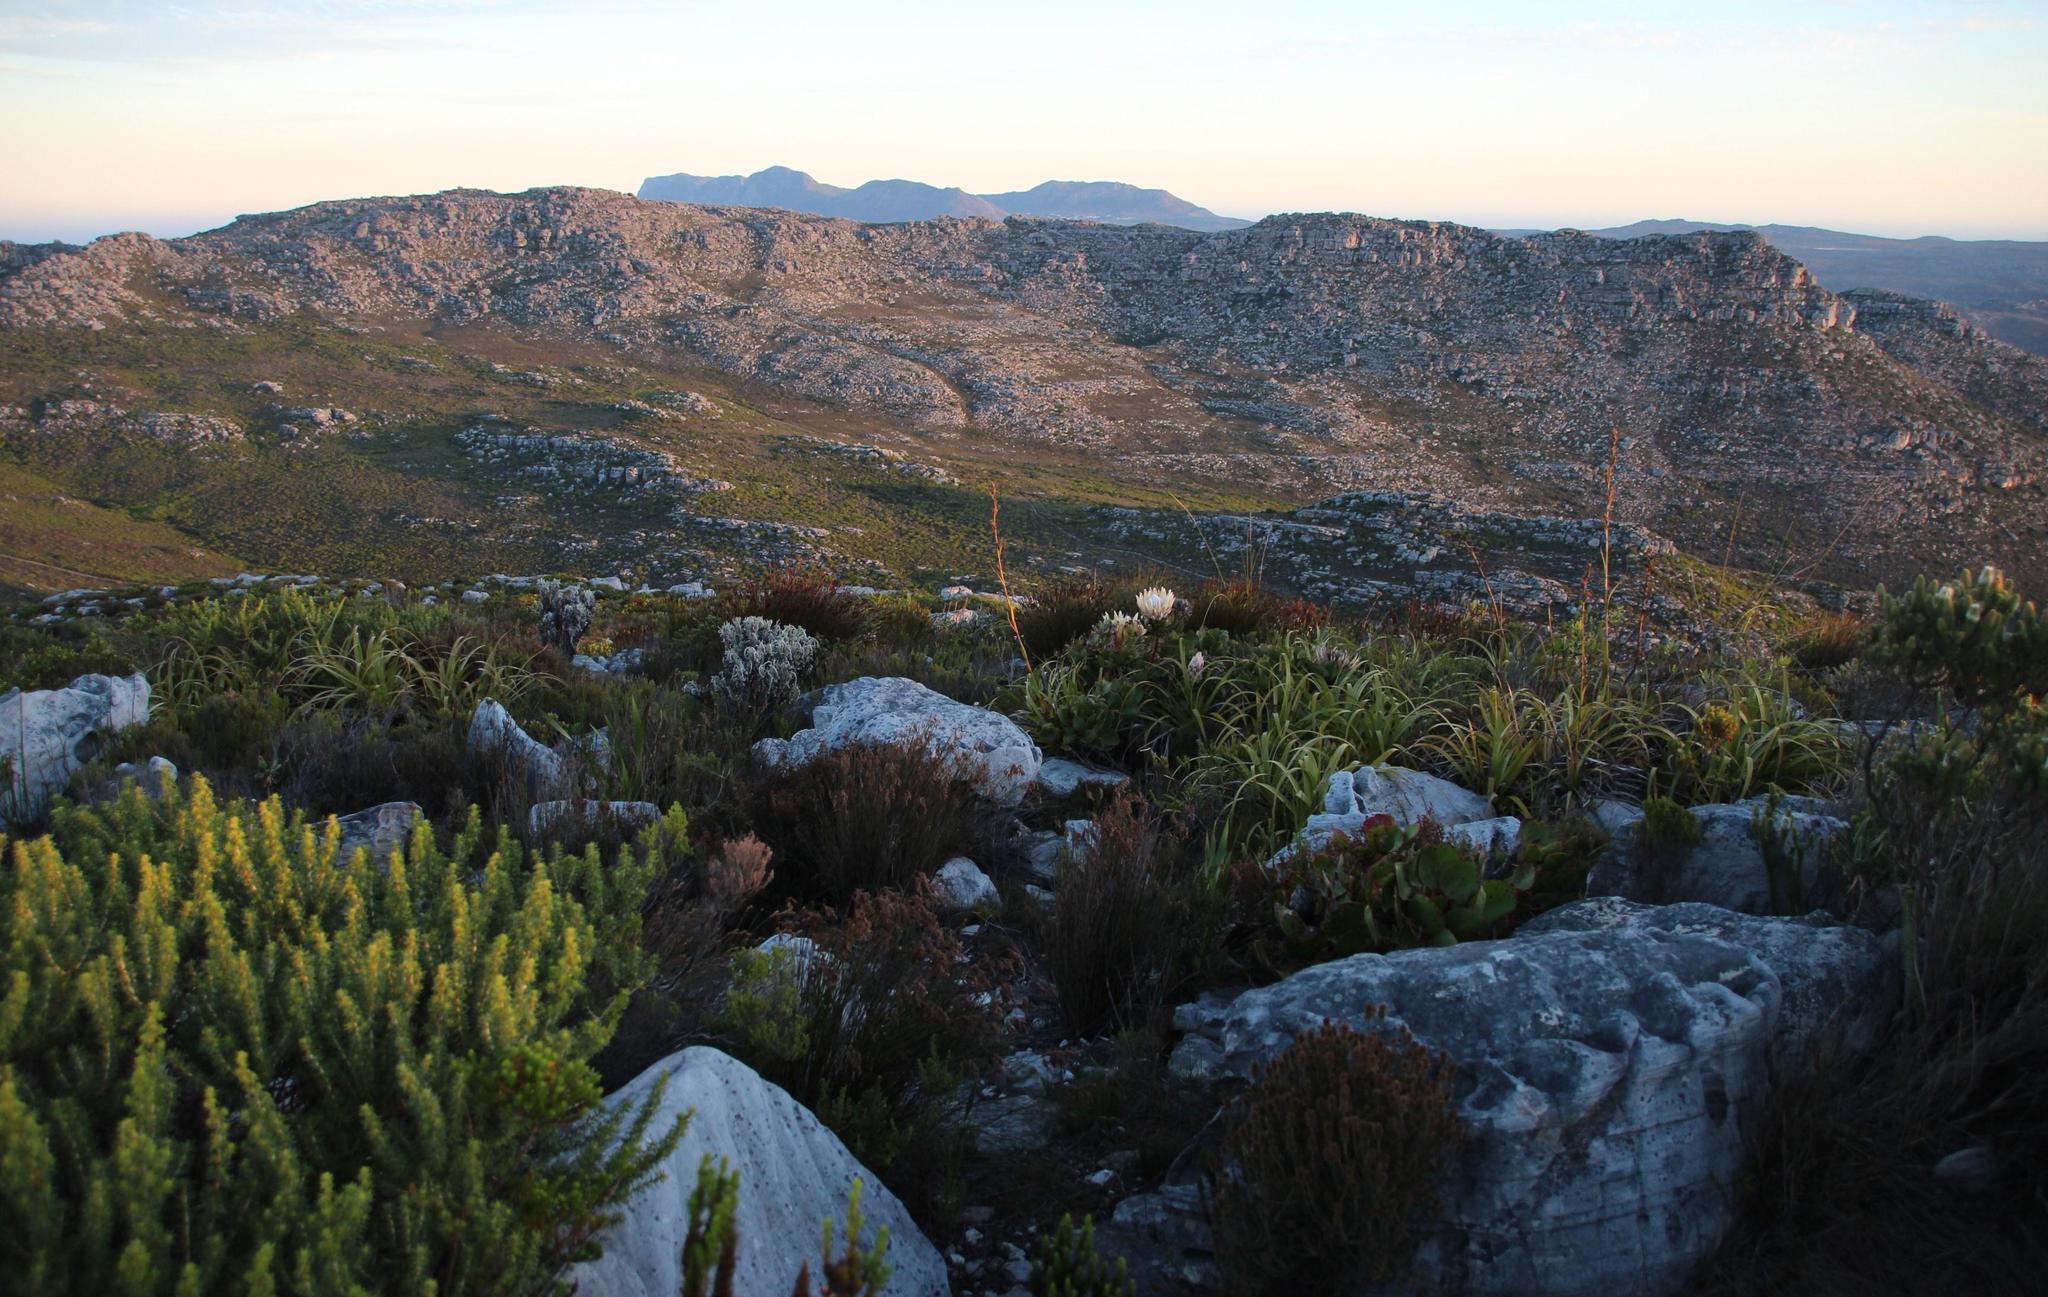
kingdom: Plantae
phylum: Tracheophyta
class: Magnoliopsida
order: Proteales
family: Proteaceae
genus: Protea
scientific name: Protea cynaroides
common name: King protea
